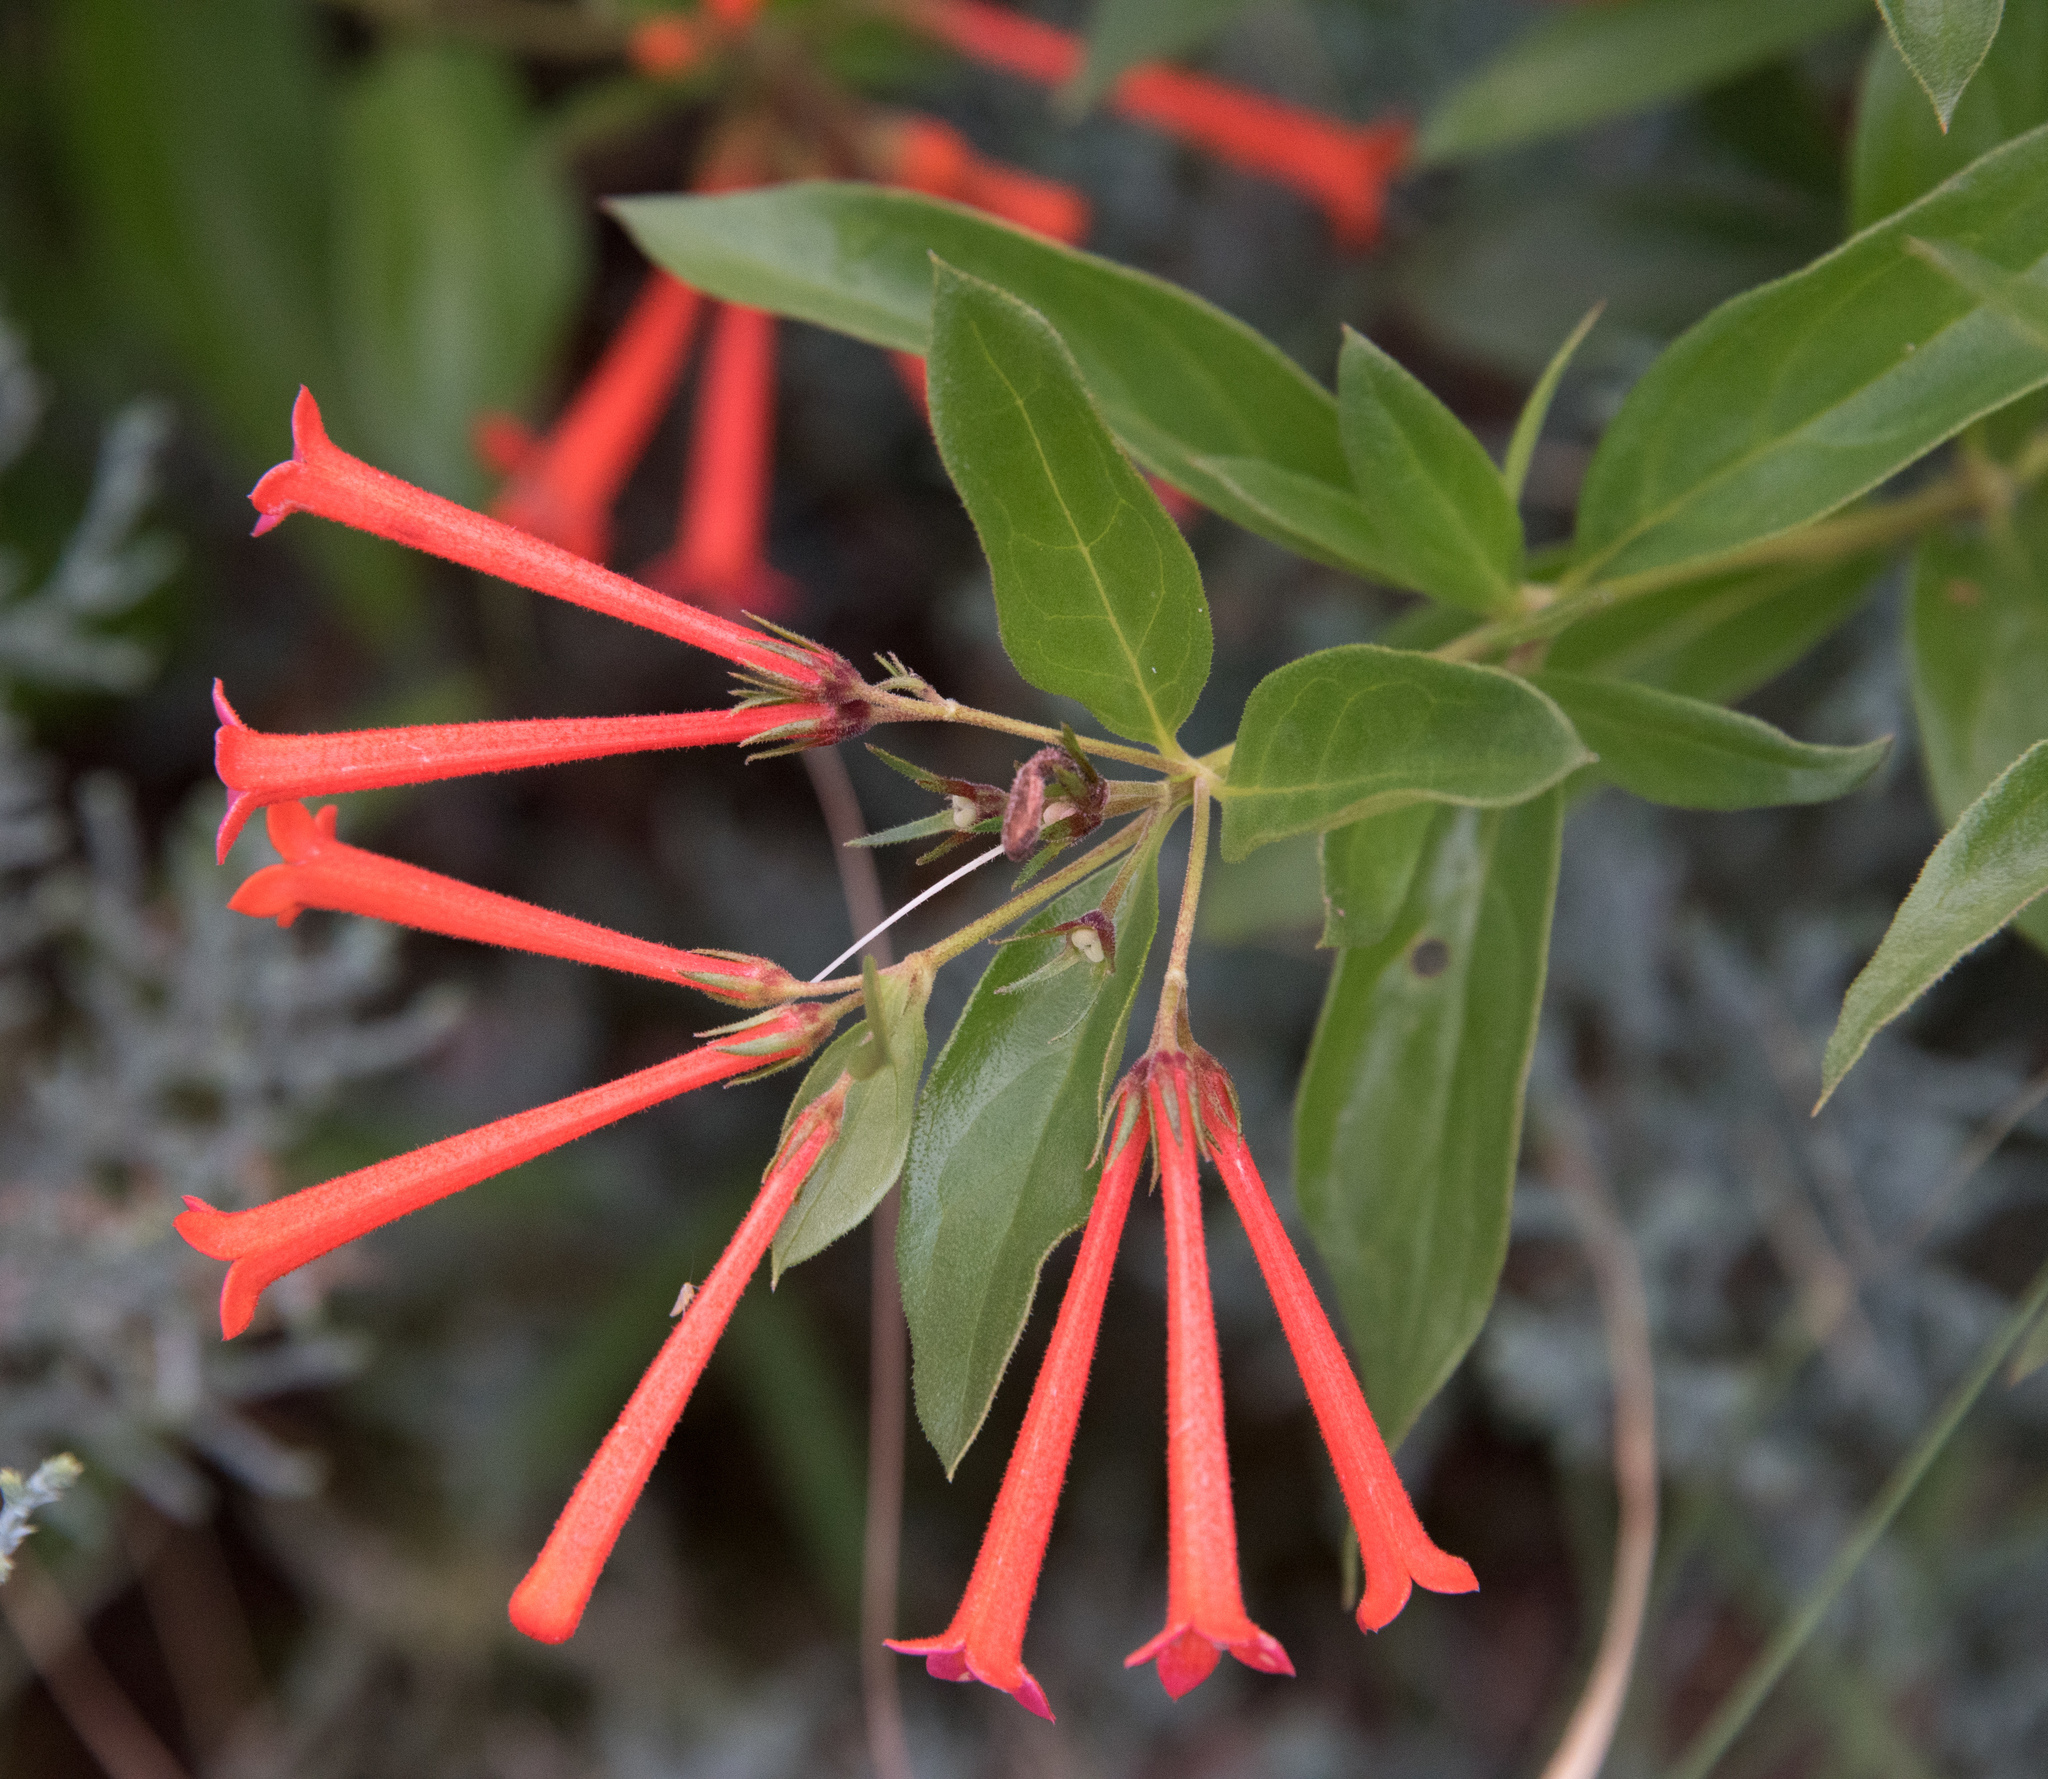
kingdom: Plantae
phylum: Tracheophyta
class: Magnoliopsida
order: Gentianales
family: Rubiaceae
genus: Bouvardia
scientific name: Bouvardia ternifolia
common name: Scarlet bouvardia
